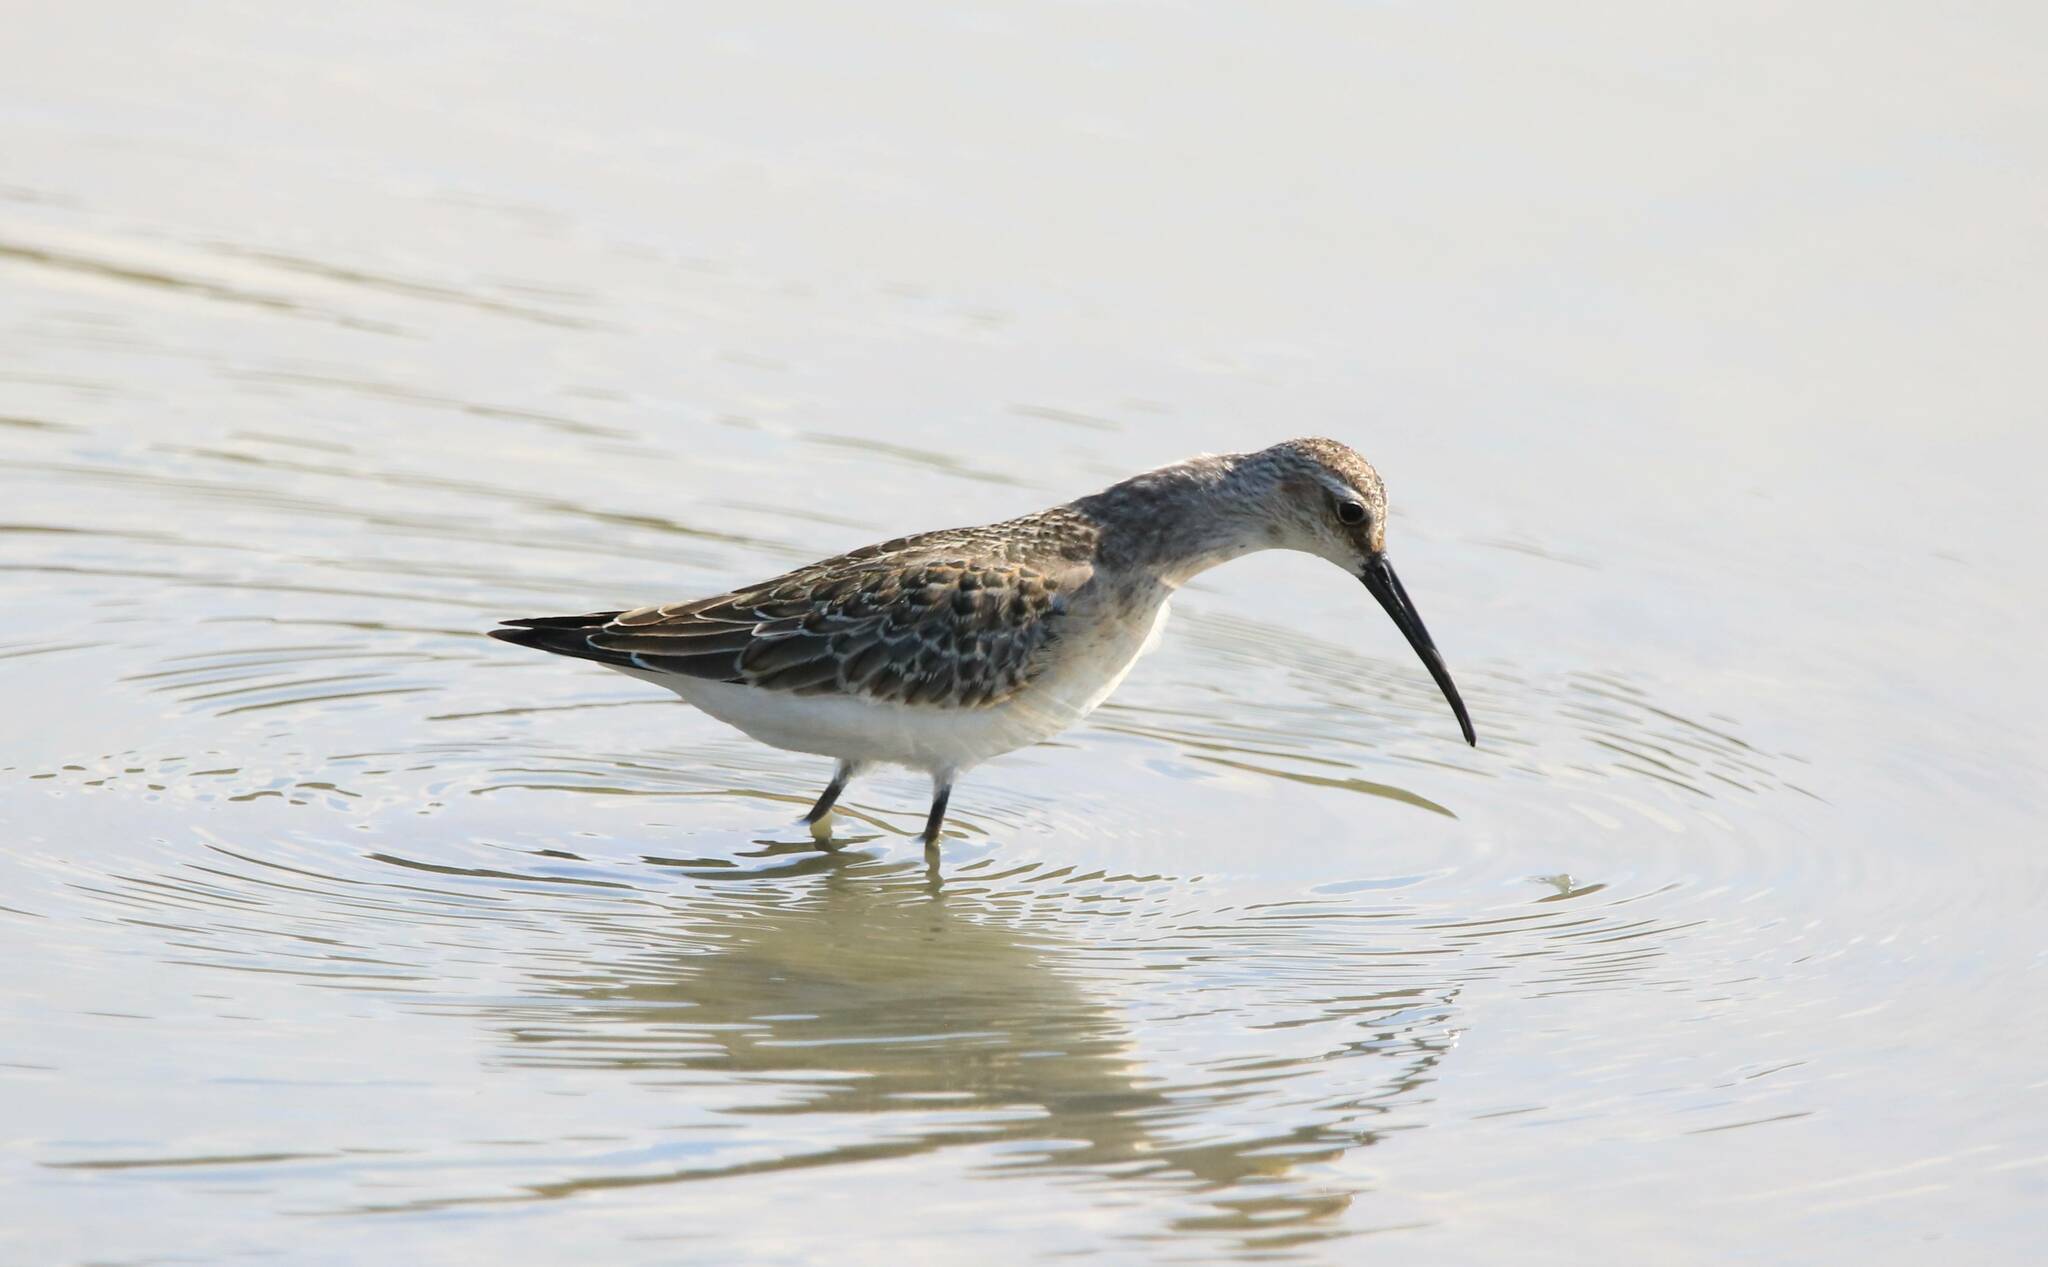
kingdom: Animalia
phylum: Chordata
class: Aves
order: Charadriiformes
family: Scolopacidae
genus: Calidris
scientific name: Calidris ferruginea
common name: Curlew sandpiper
